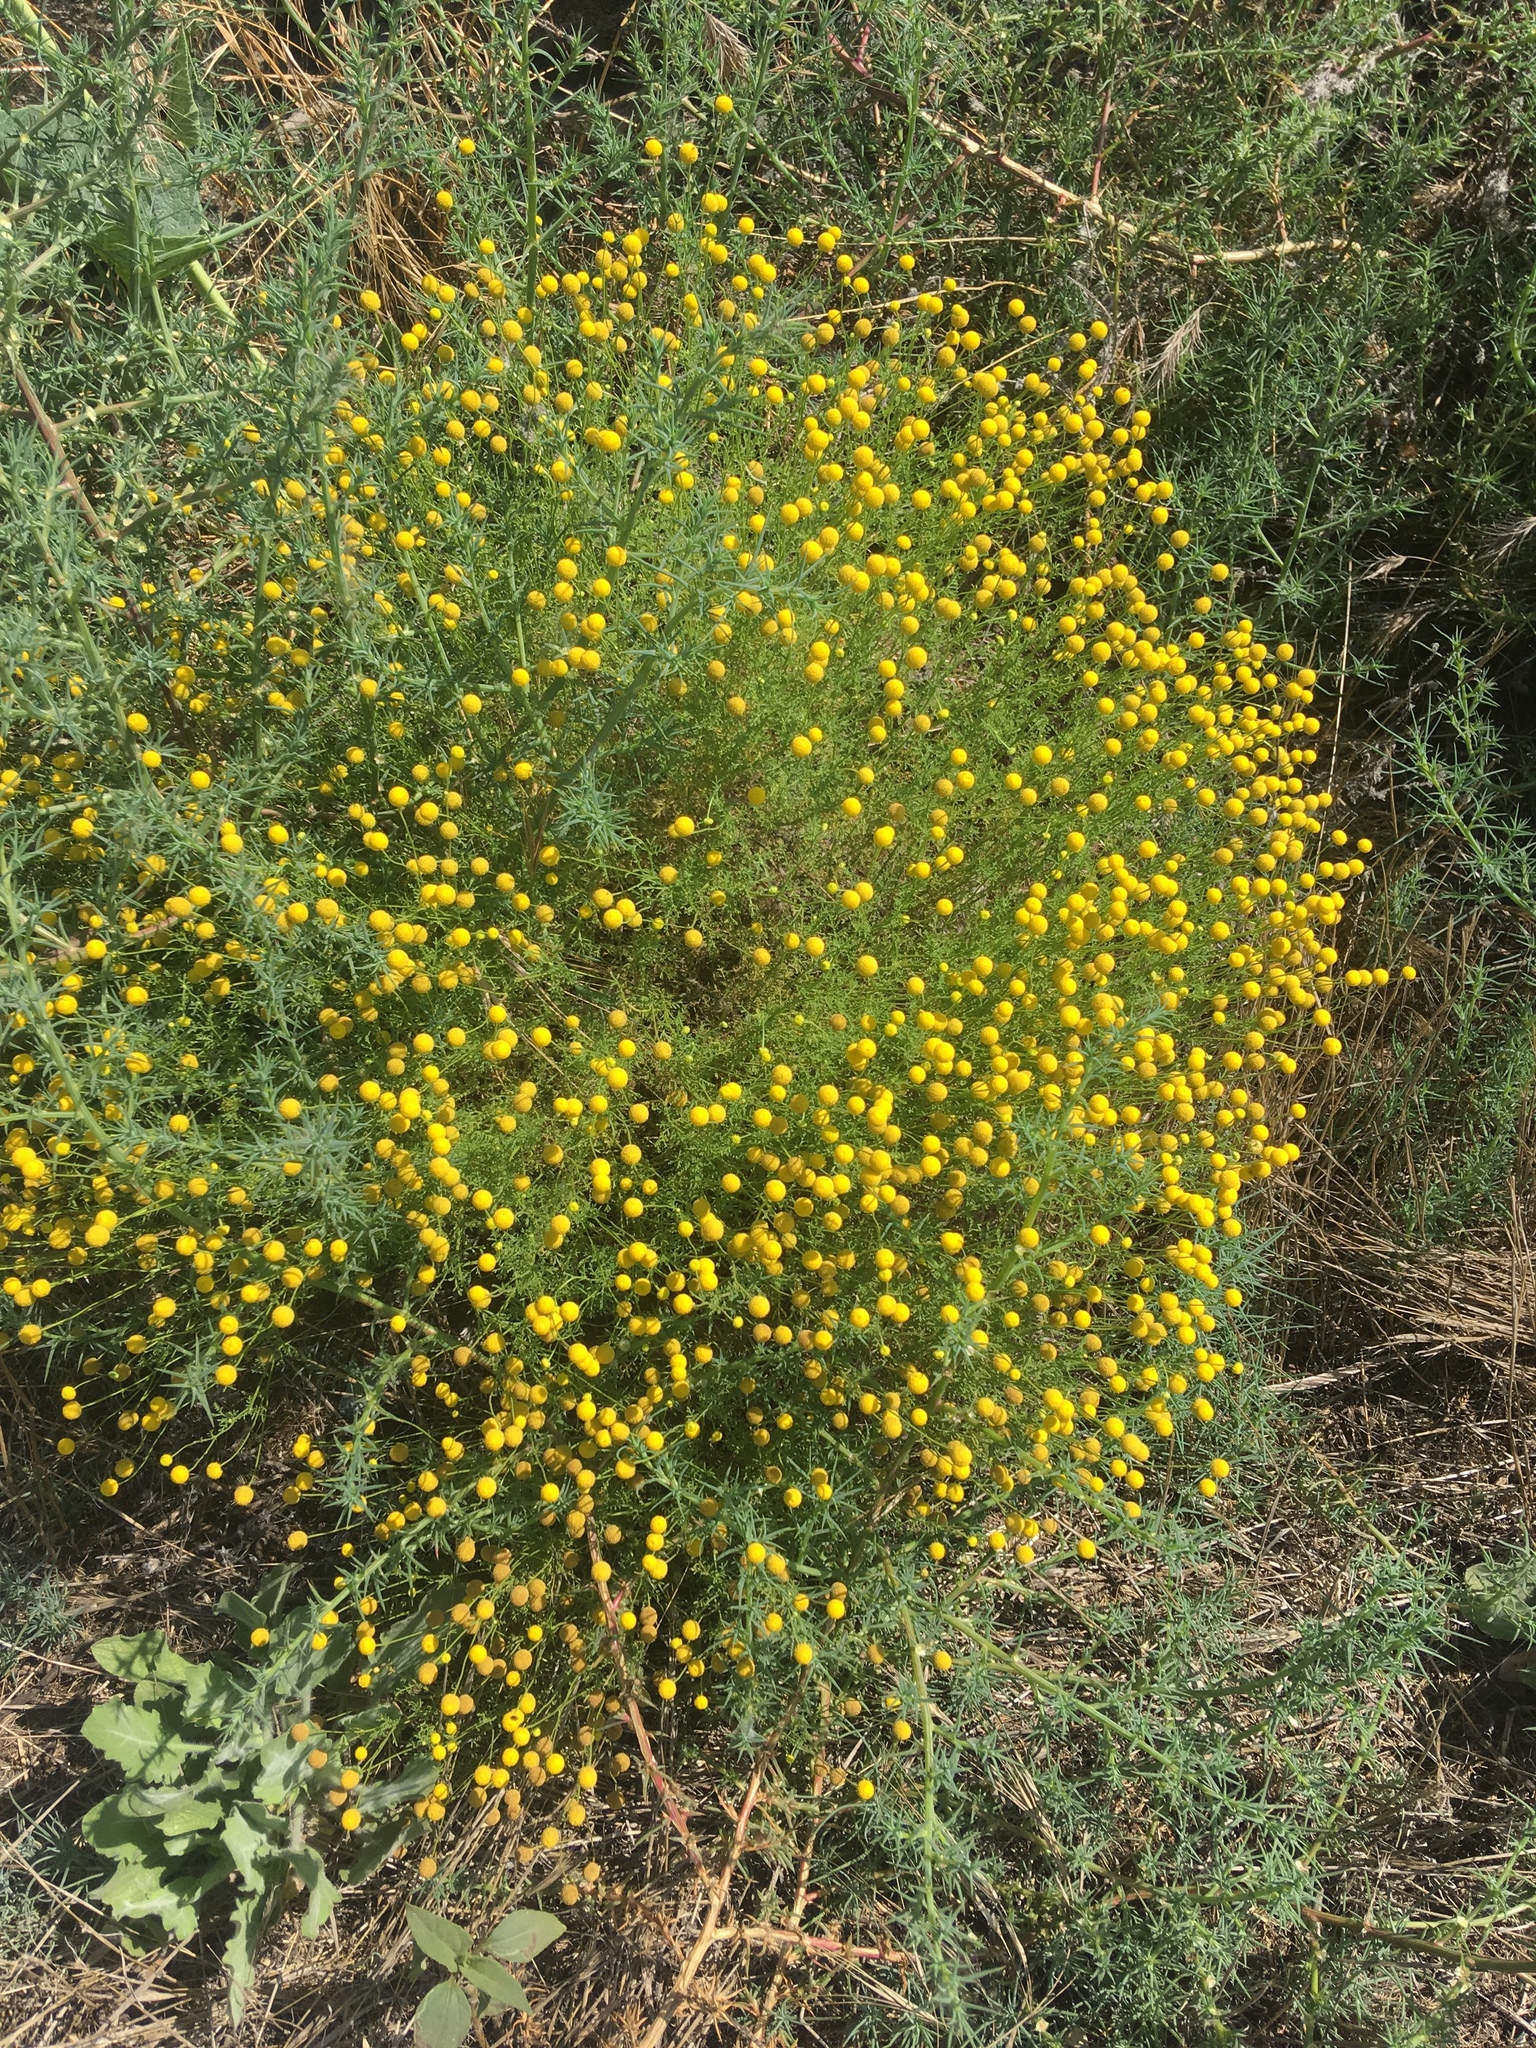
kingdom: Plantae
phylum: Tracheophyta
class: Magnoliopsida
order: Asterales
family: Asteraceae
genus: Oncosiphon
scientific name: Oncosiphon pilulifer
